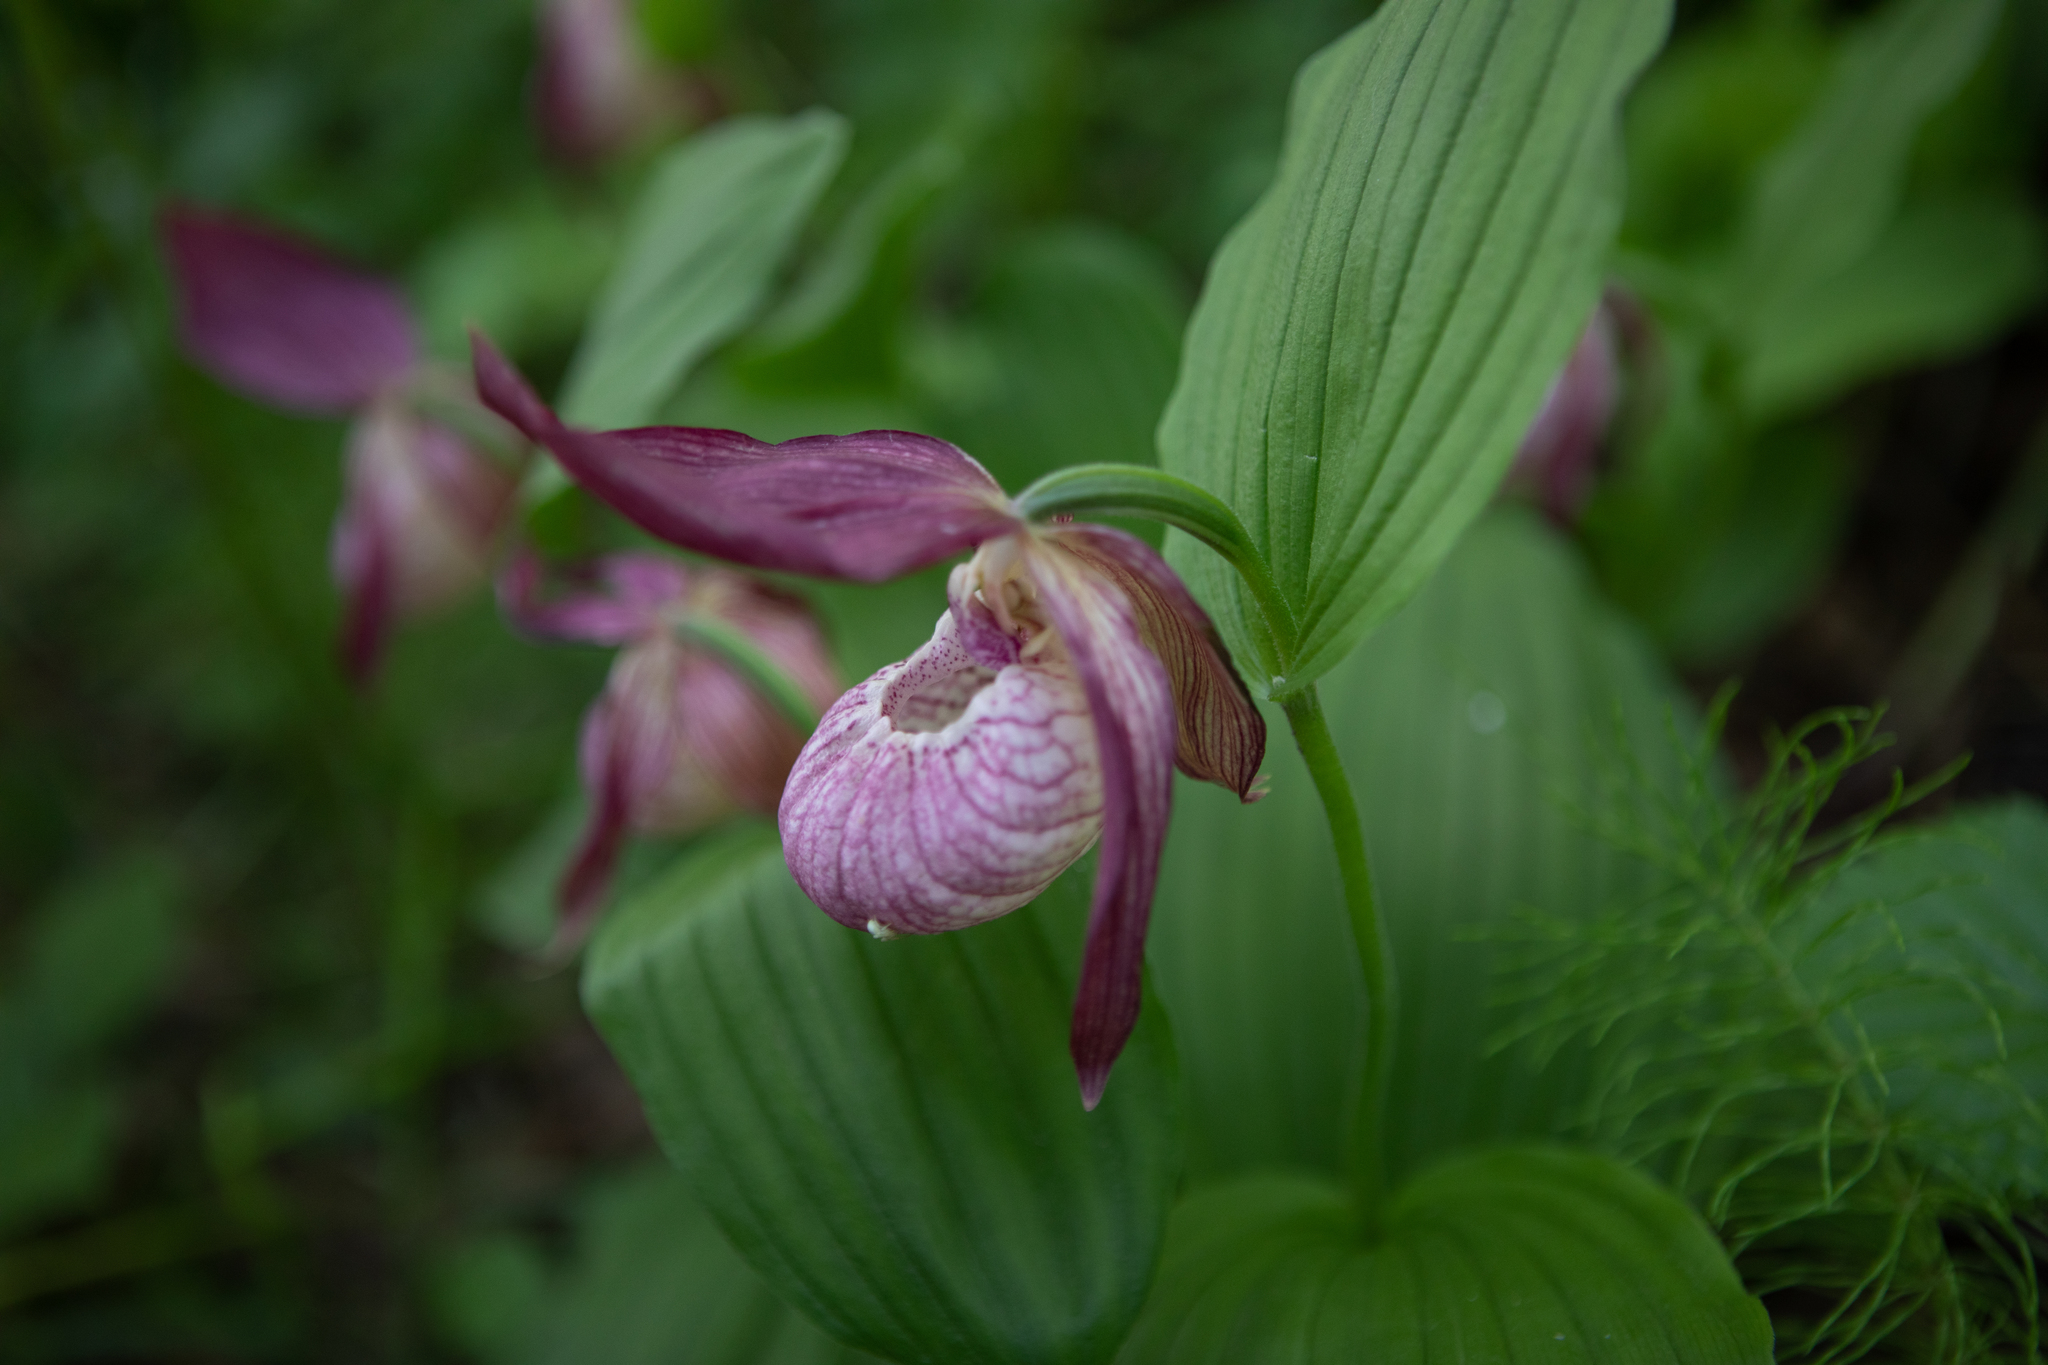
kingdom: Plantae
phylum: Tracheophyta
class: Liliopsida
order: Asparagales
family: Orchidaceae
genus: Cypripedium
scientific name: Cypripedium ventricosum
